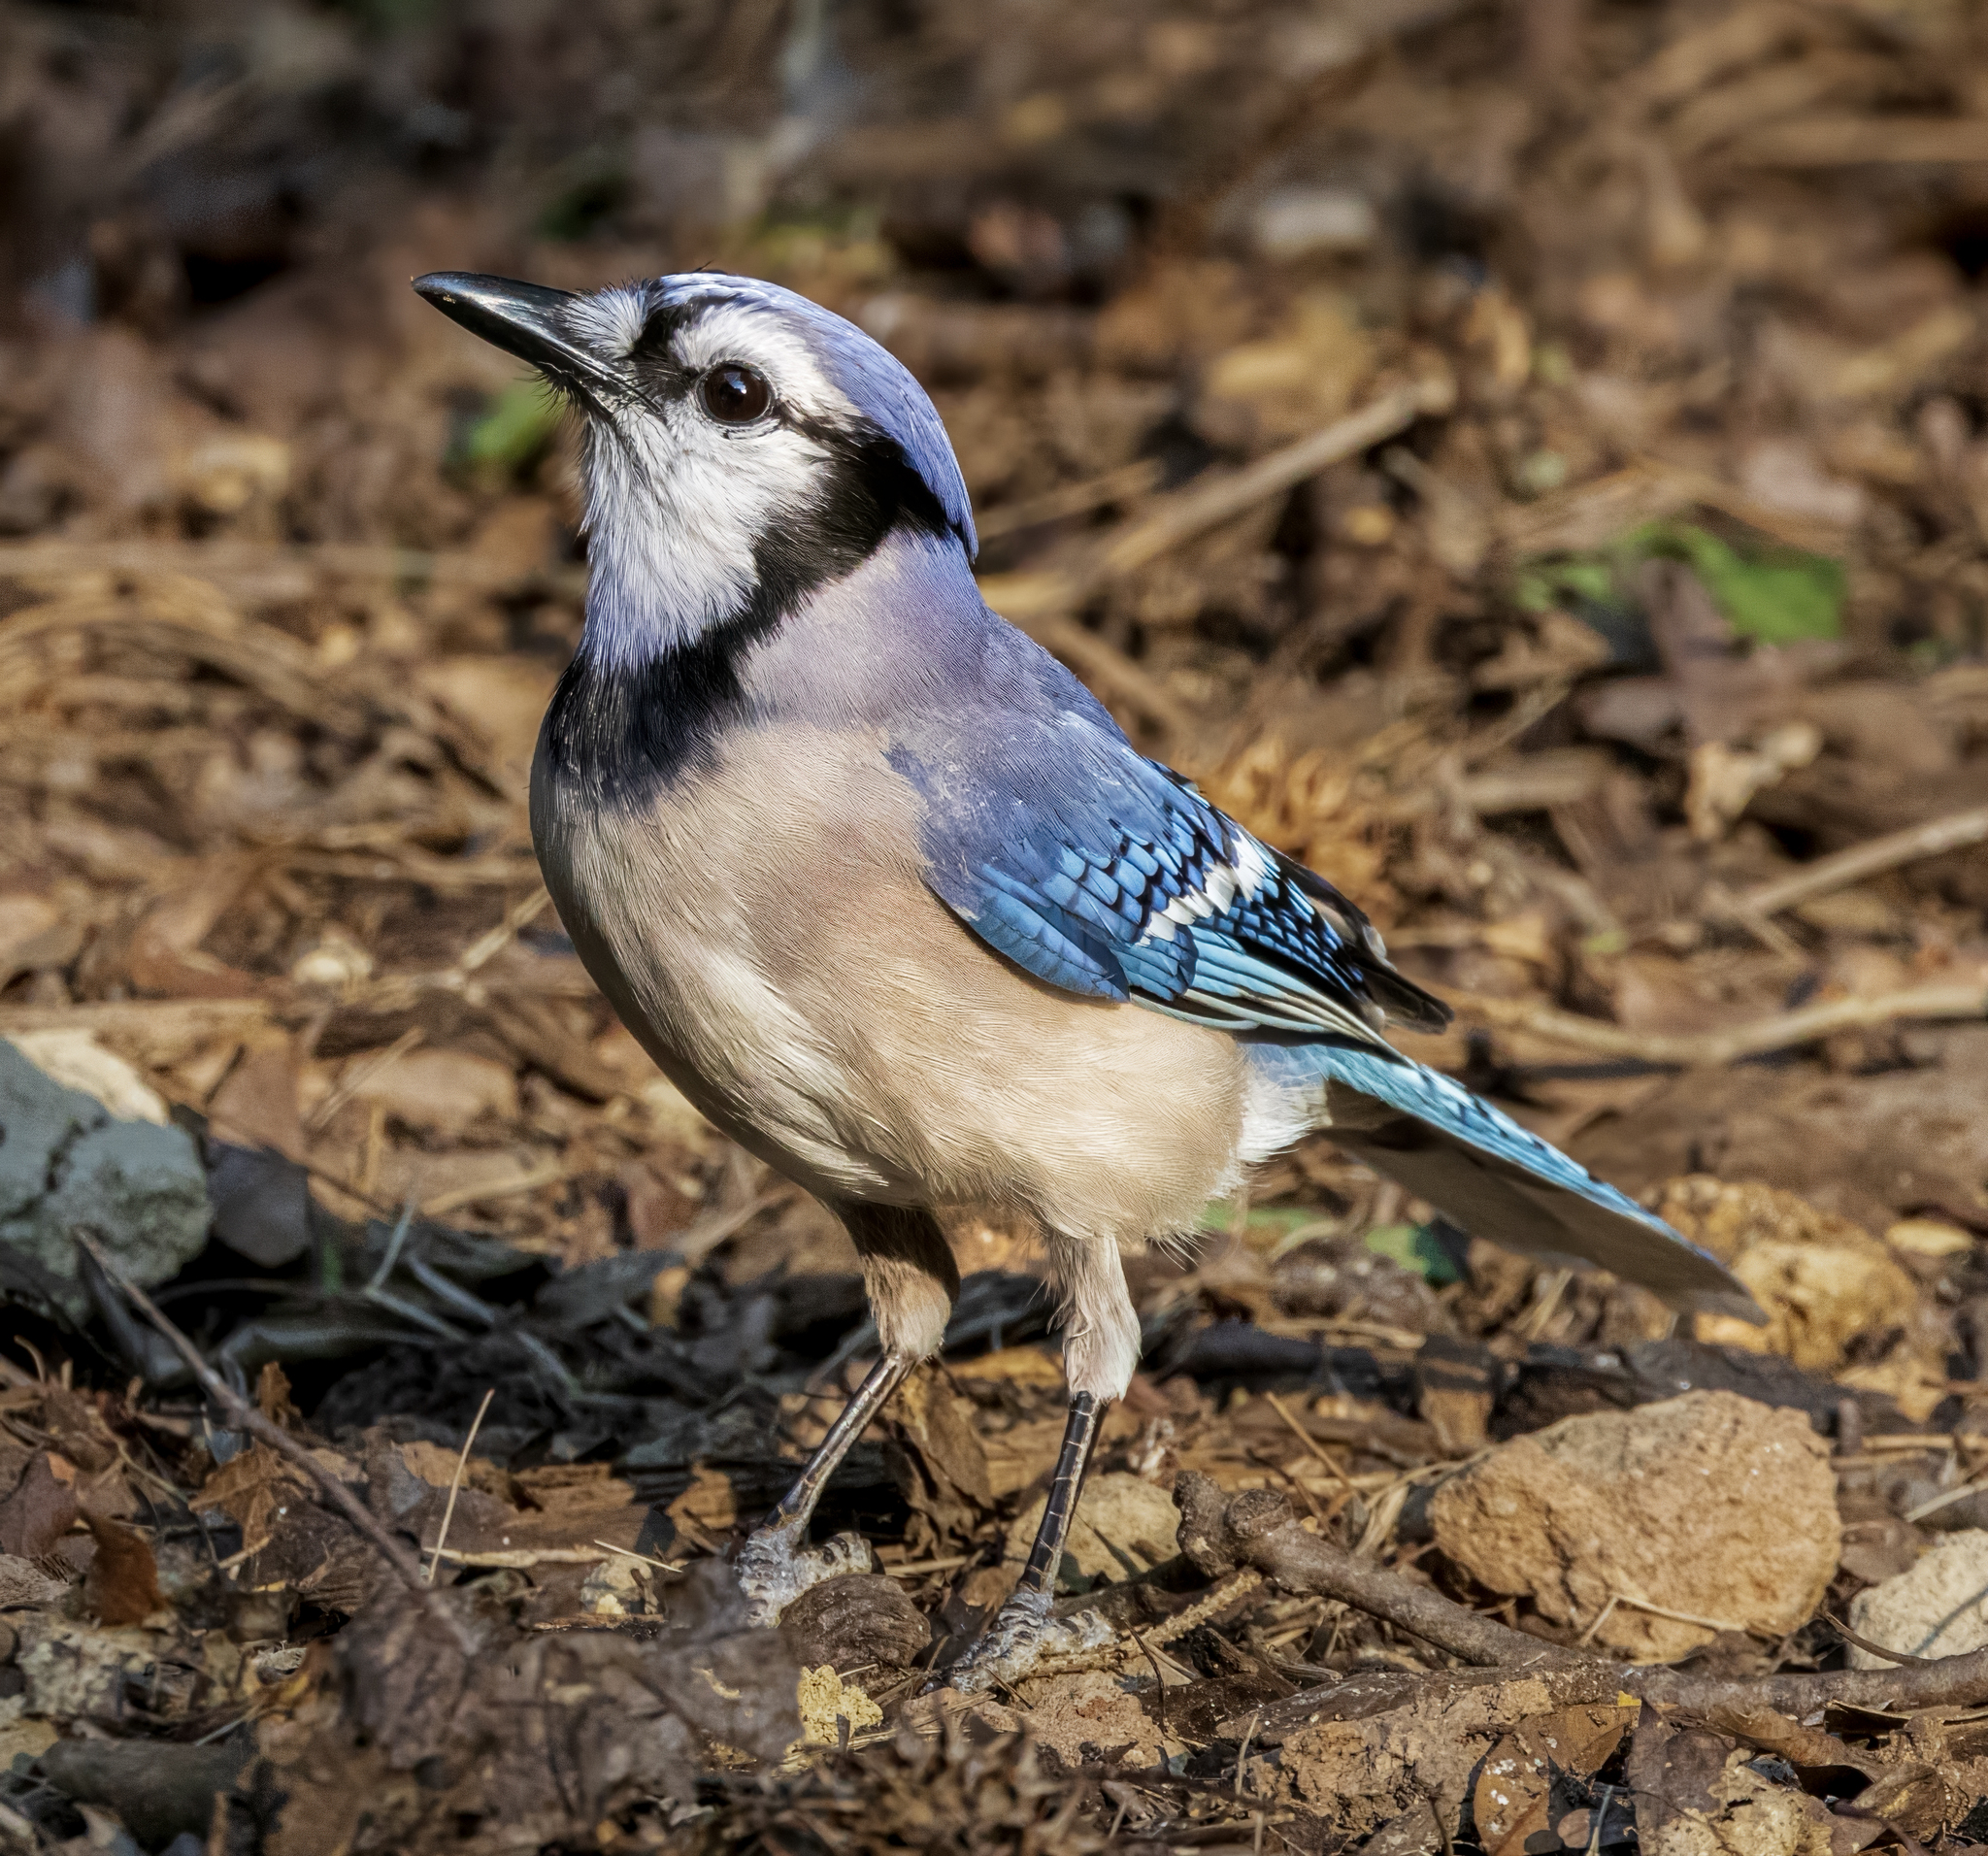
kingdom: Animalia
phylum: Chordata
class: Aves
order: Passeriformes
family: Corvidae
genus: Cyanocitta
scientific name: Cyanocitta cristata
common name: Blue jay
